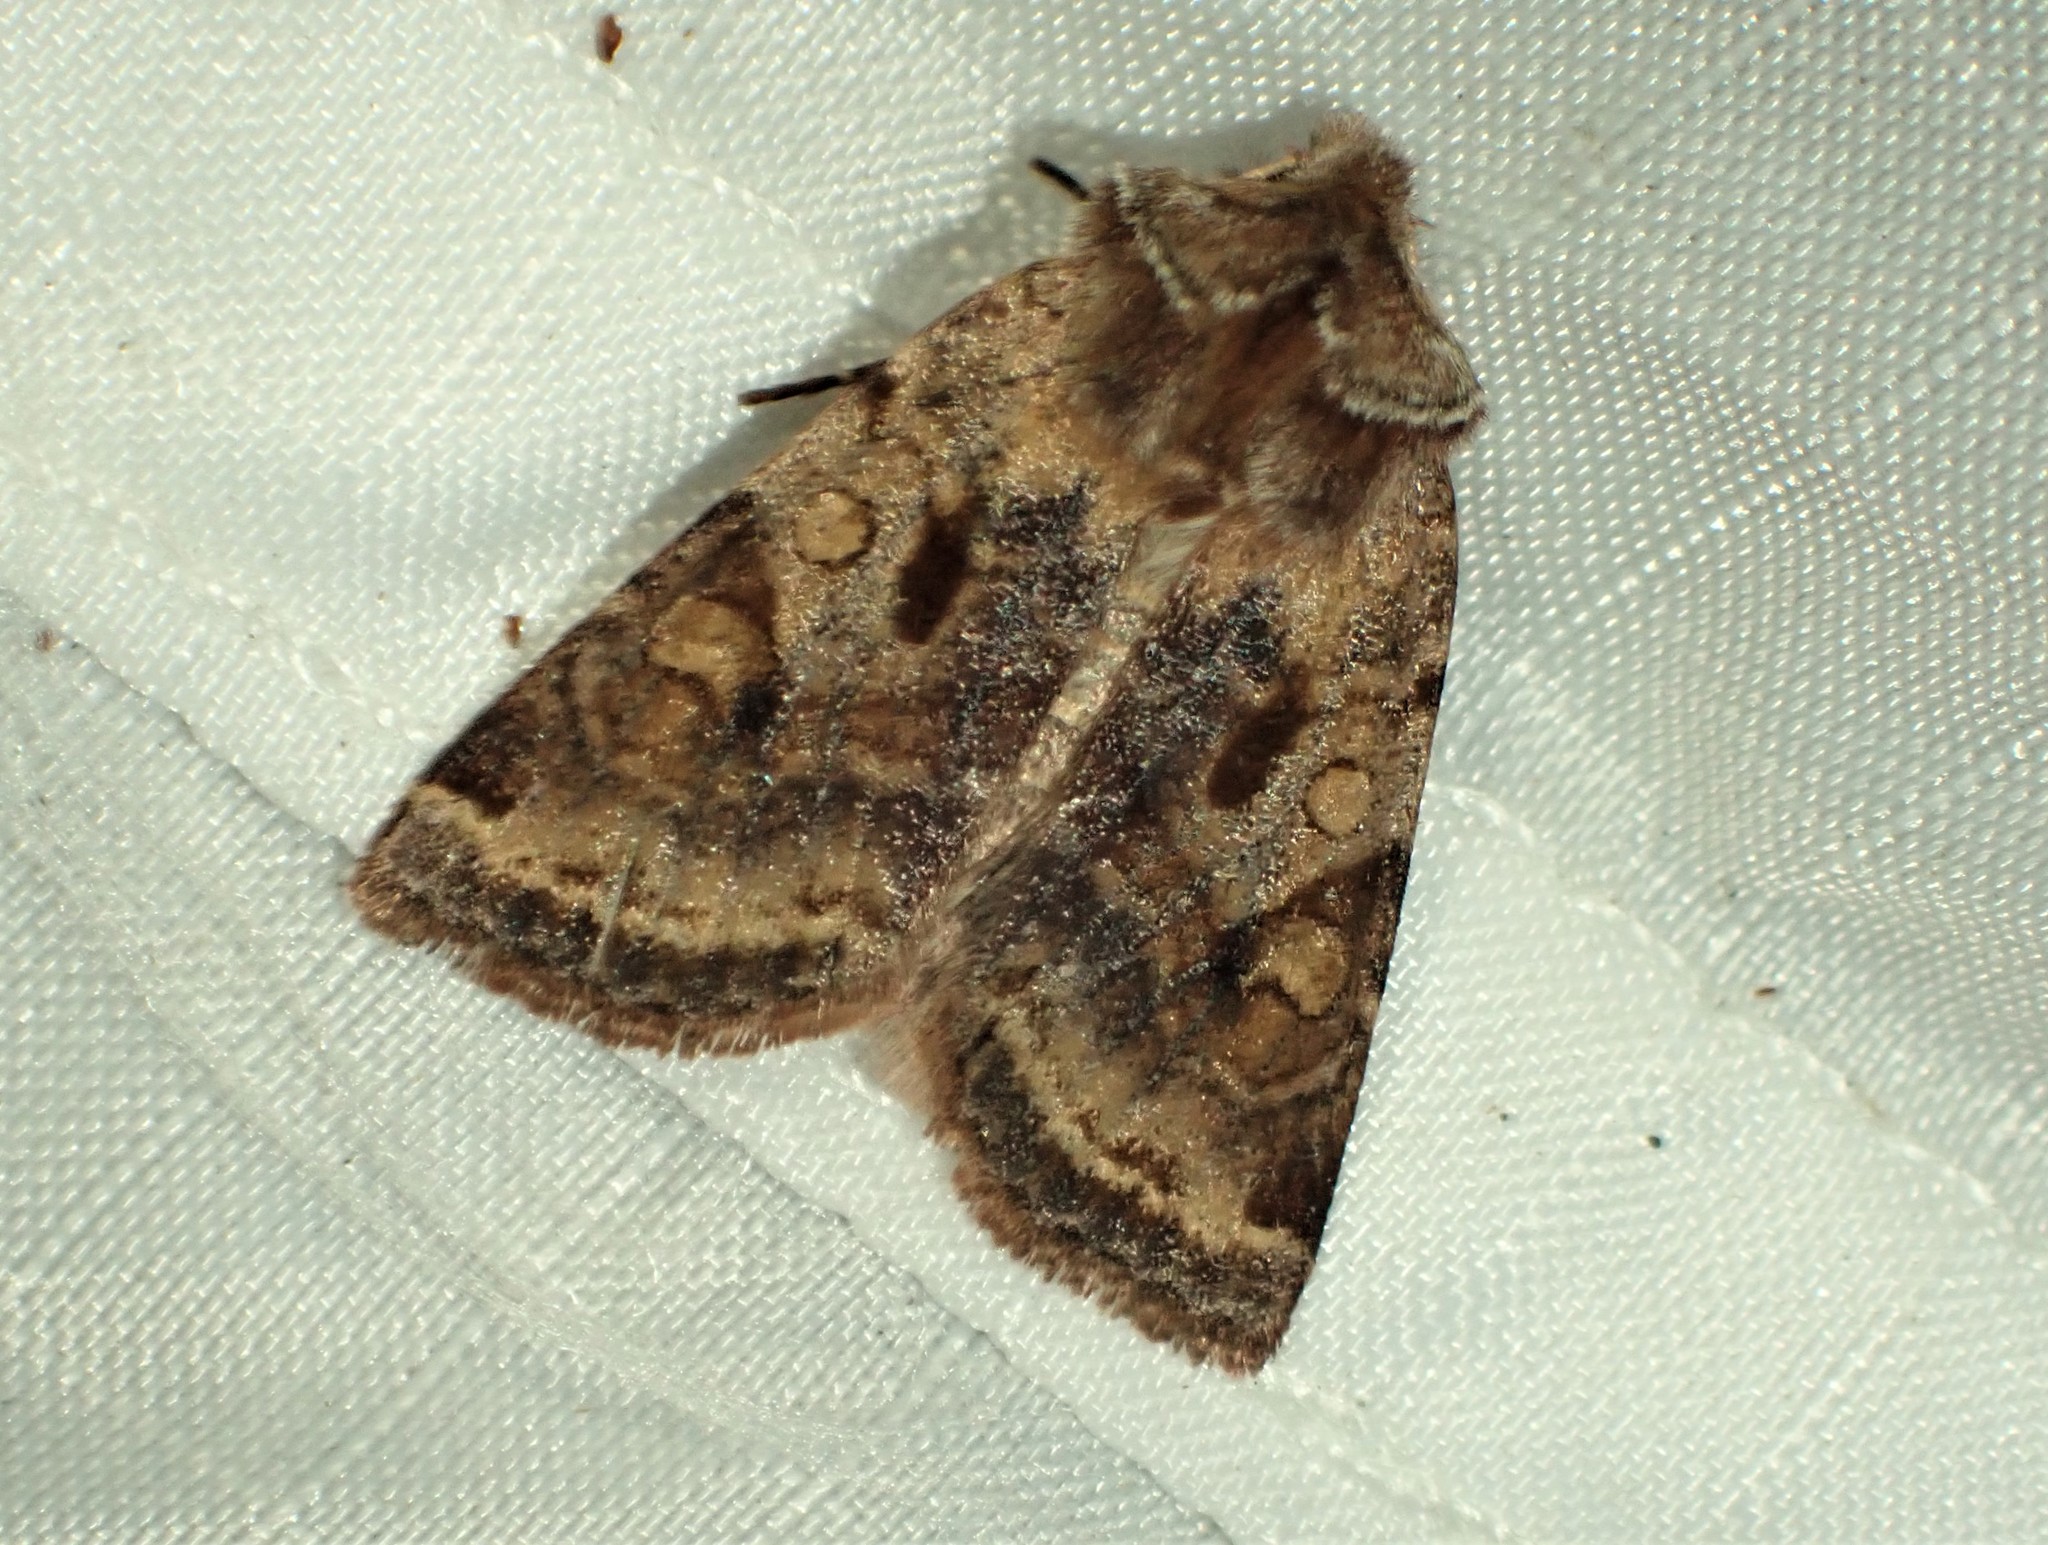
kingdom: Animalia
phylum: Arthropoda
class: Insecta
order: Lepidoptera
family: Noctuidae
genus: Cerastis
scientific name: Cerastis salicarum
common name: Willow dart
